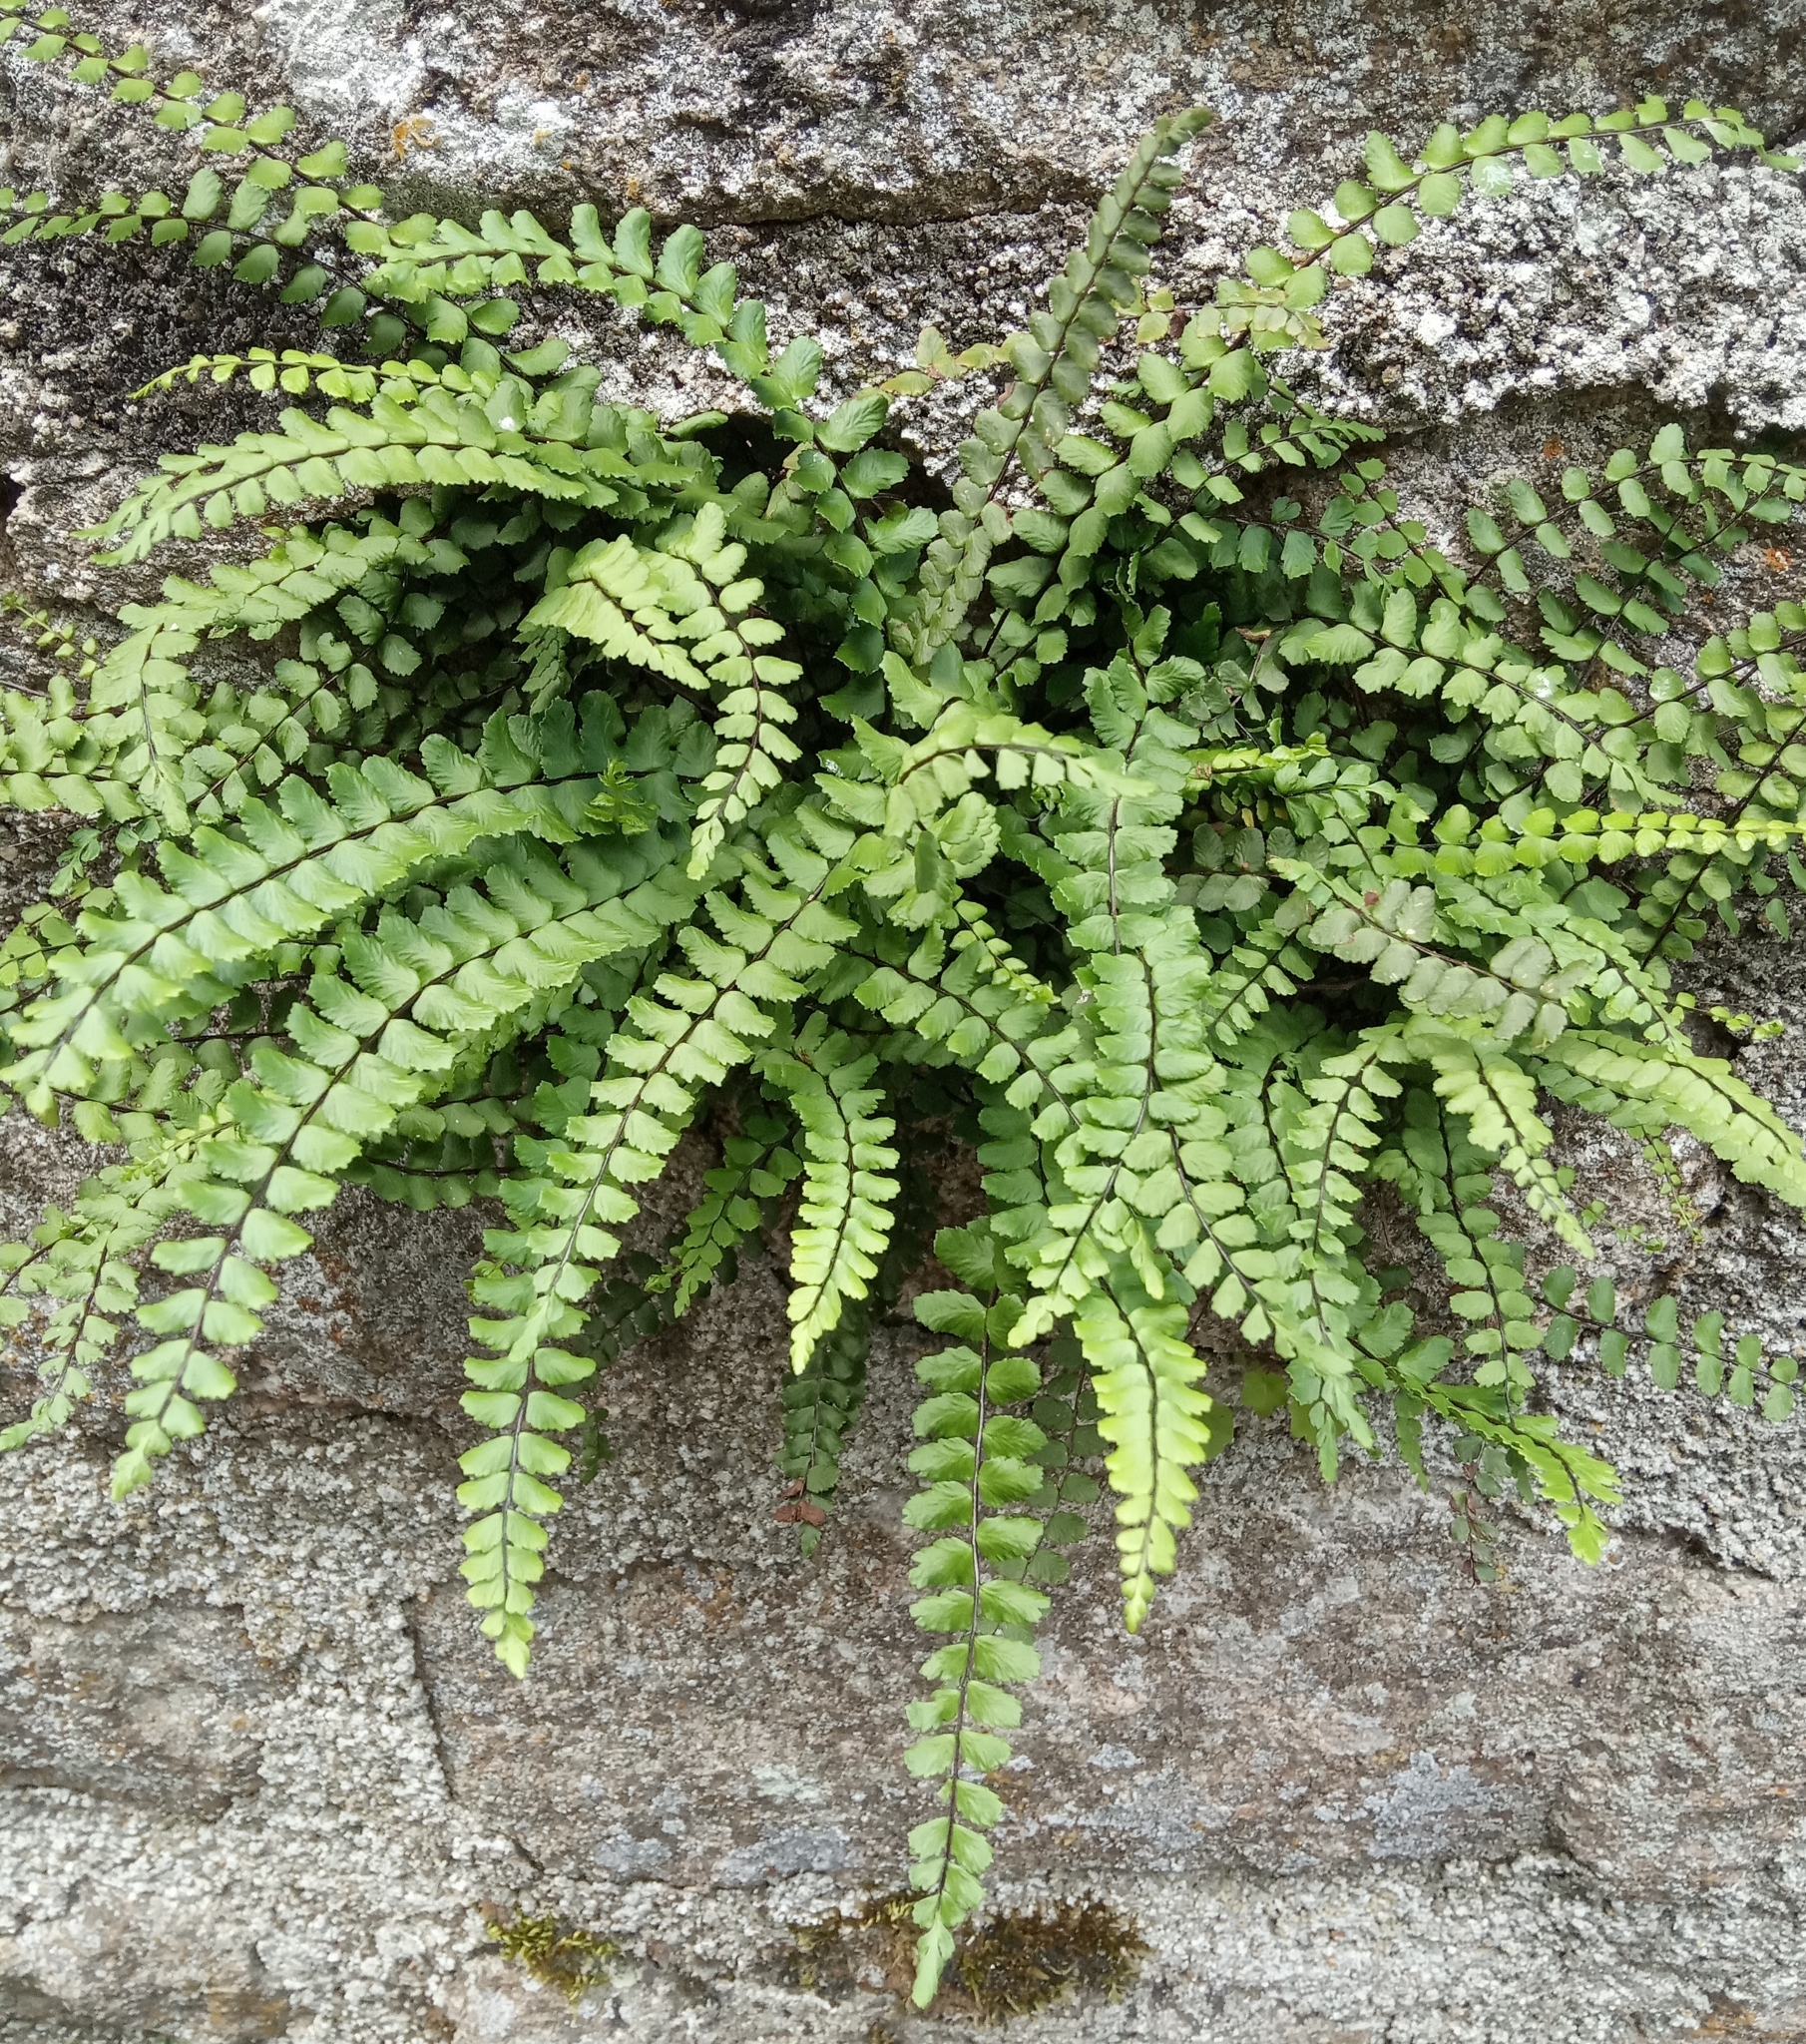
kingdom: Plantae
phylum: Tracheophyta
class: Polypodiopsida
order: Polypodiales
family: Aspleniaceae
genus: Asplenium
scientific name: Asplenium trichomanes
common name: Maidenhair spleenwort
